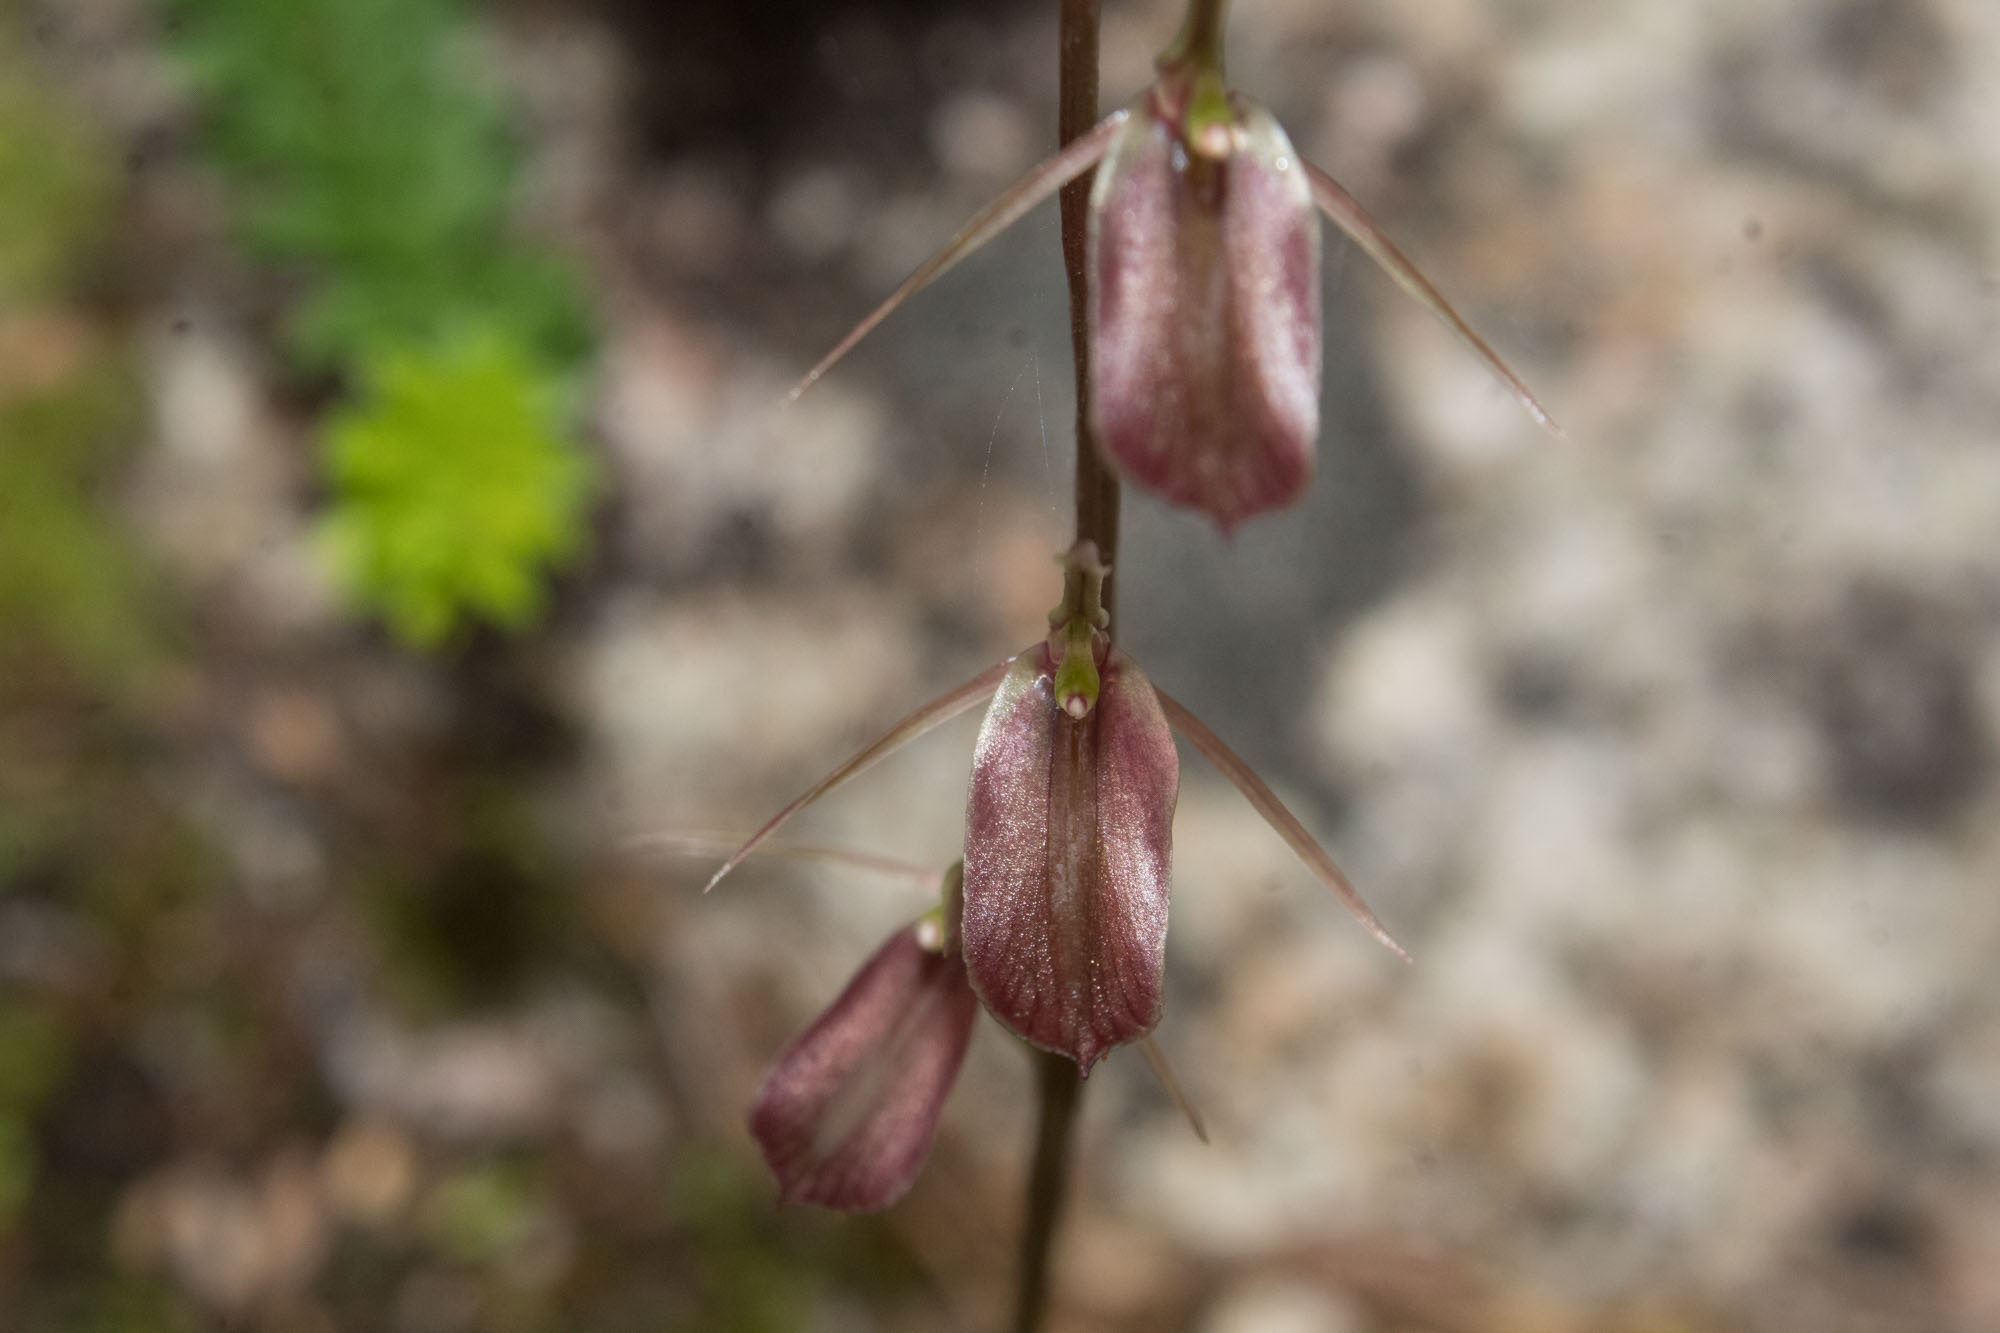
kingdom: Plantae
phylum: Tracheophyta
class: Liliopsida
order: Asparagales
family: Orchidaceae
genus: Cyrtostylis
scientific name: Cyrtostylis robusta
